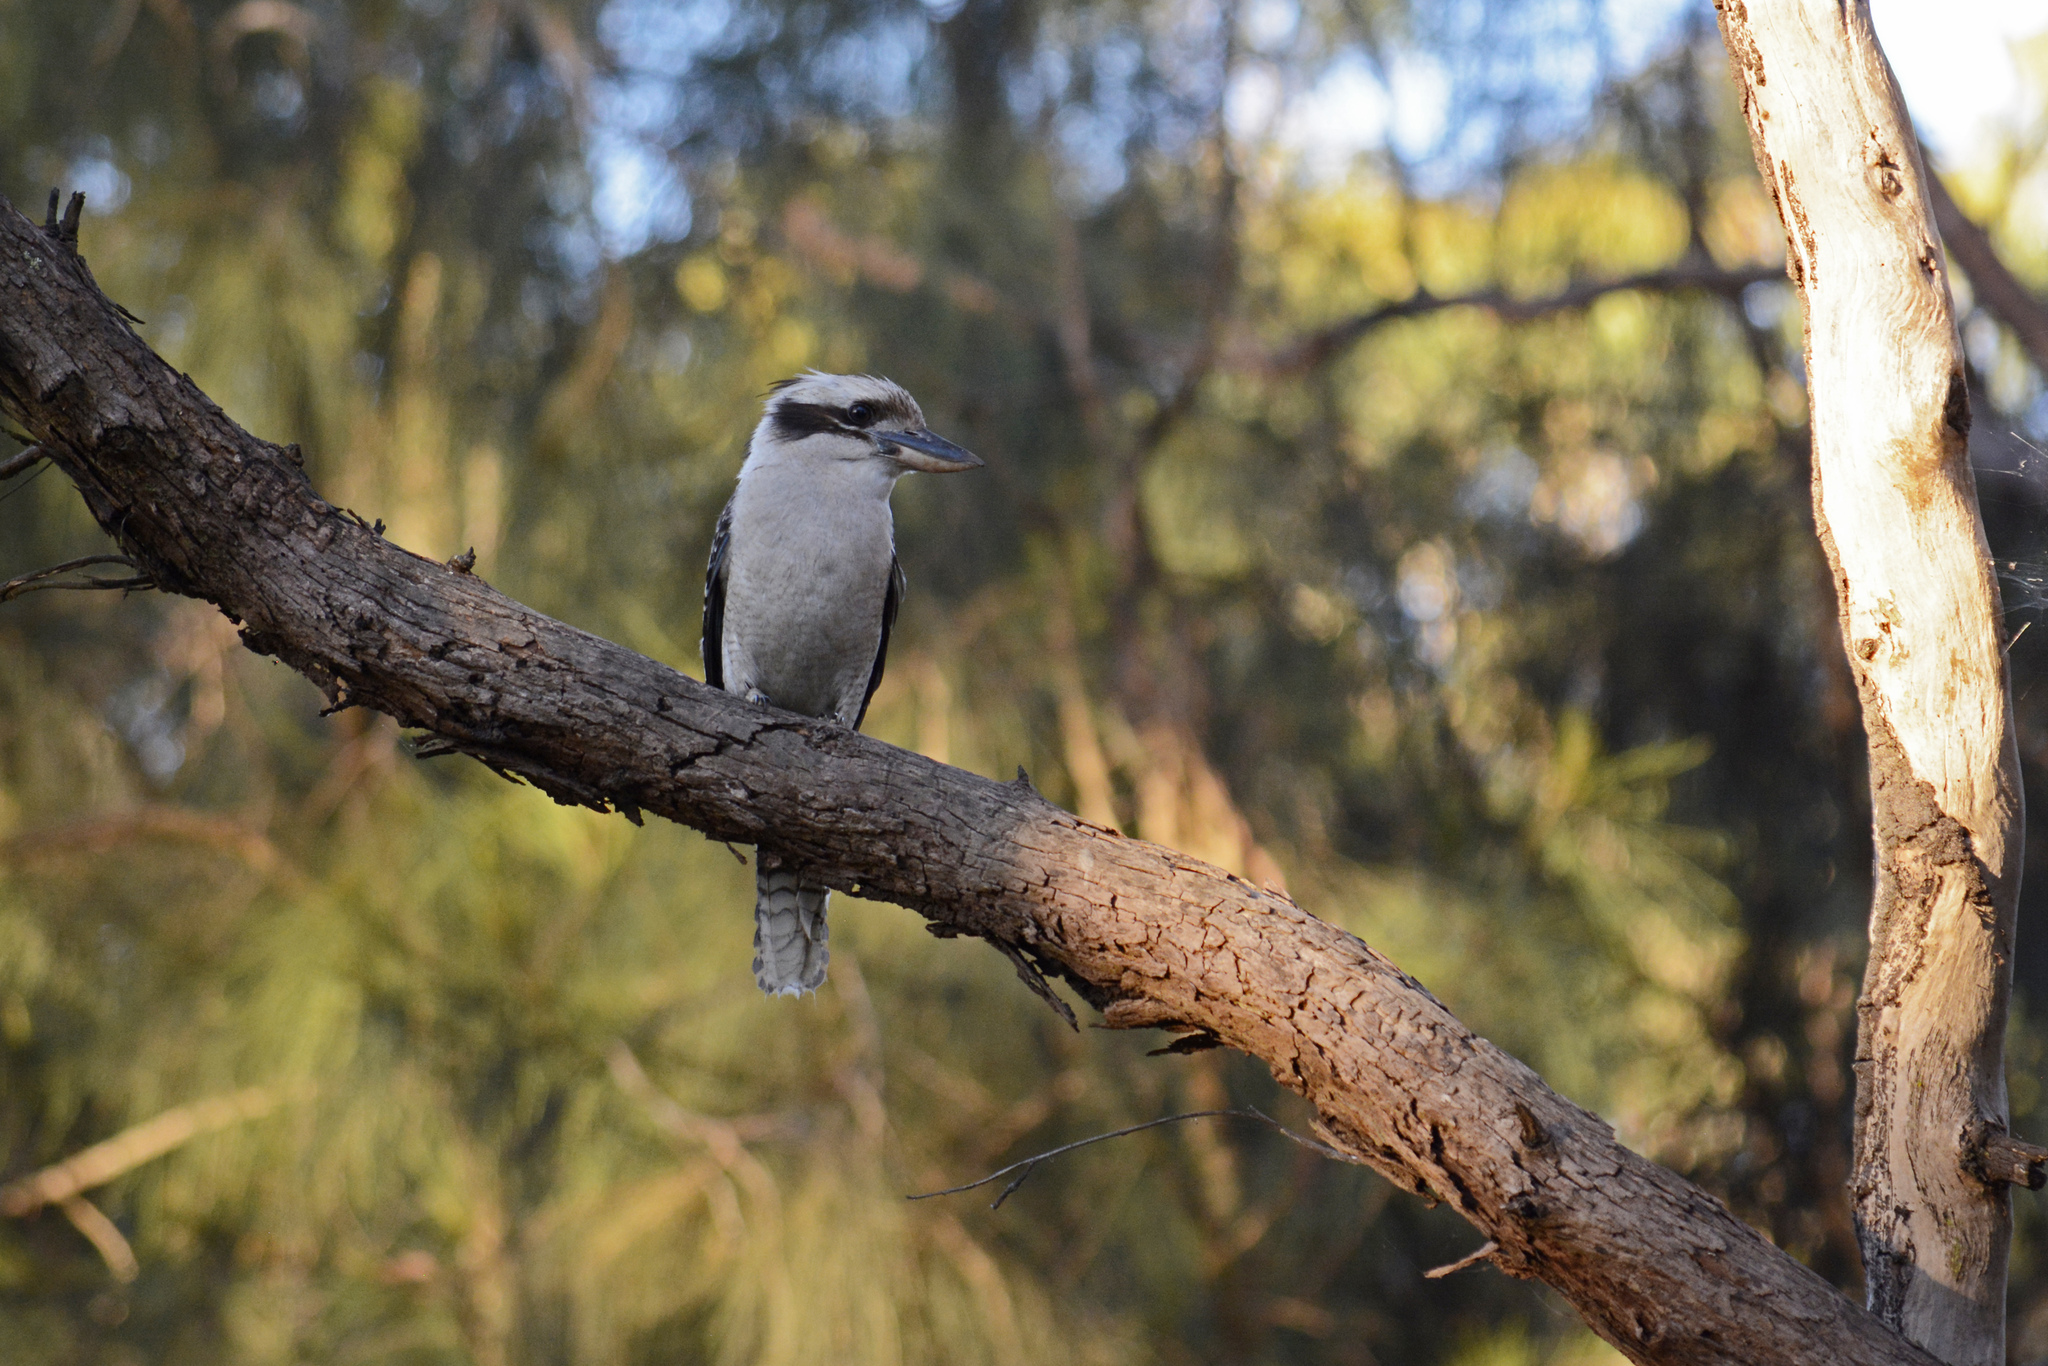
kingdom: Animalia
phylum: Chordata
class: Aves
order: Coraciiformes
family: Alcedinidae
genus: Dacelo
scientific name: Dacelo novaeguineae
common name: Laughing kookaburra
